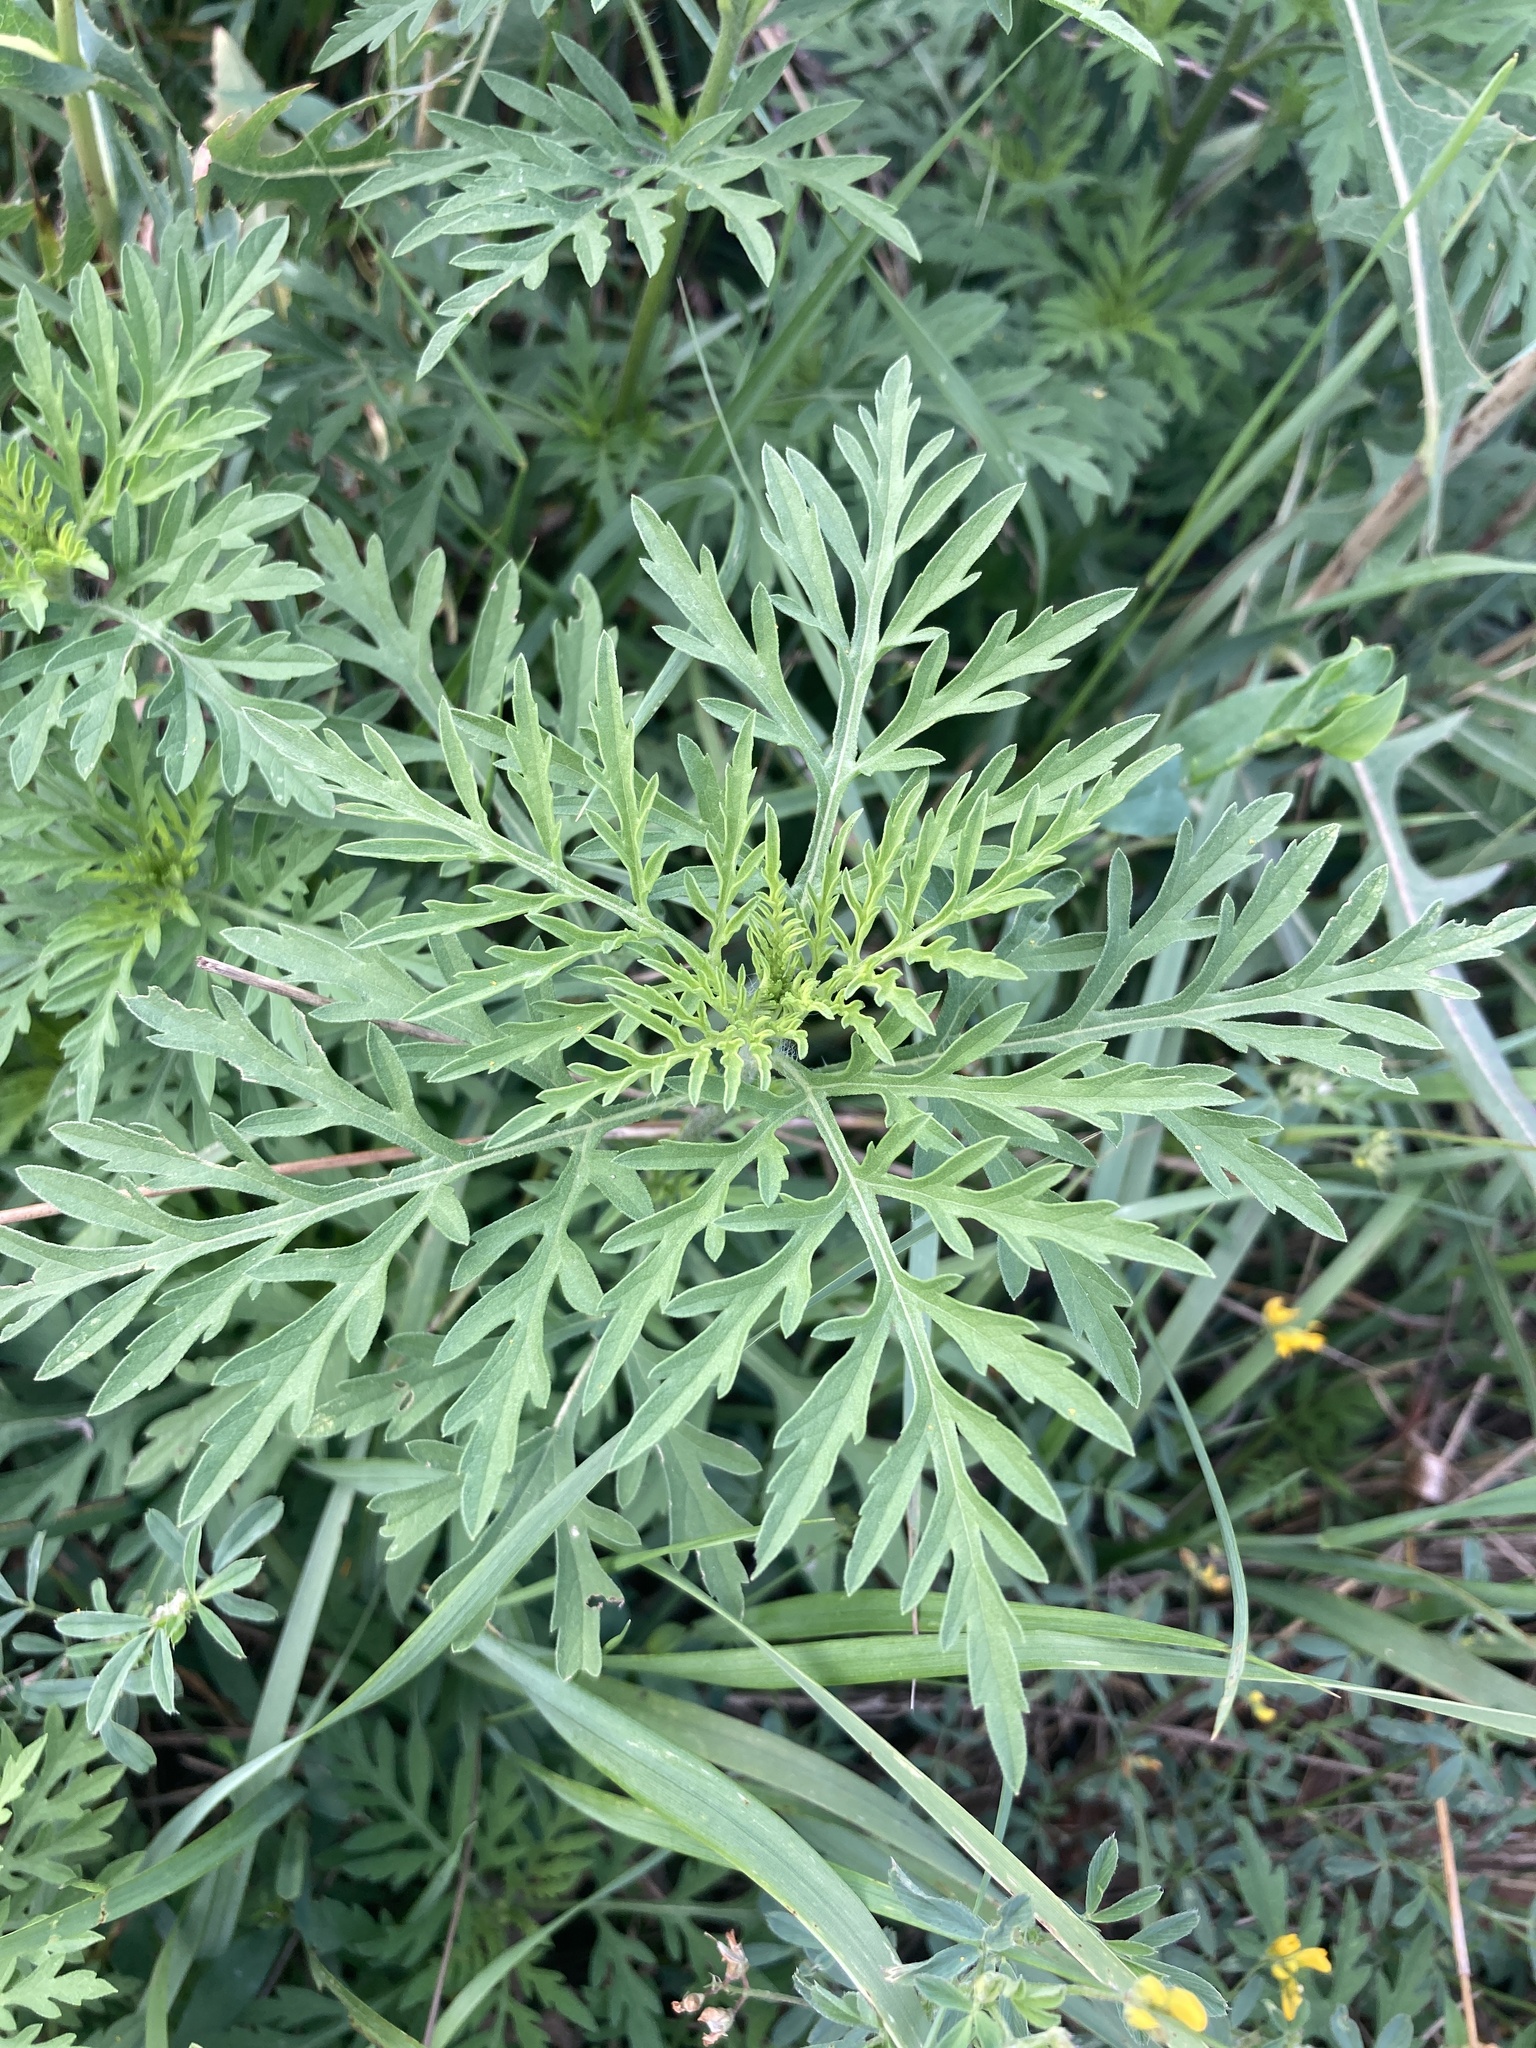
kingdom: Plantae
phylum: Tracheophyta
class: Magnoliopsida
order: Asterales
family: Asteraceae
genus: Ambrosia
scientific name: Ambrosia artemisiifolia
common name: Annual ragweed
